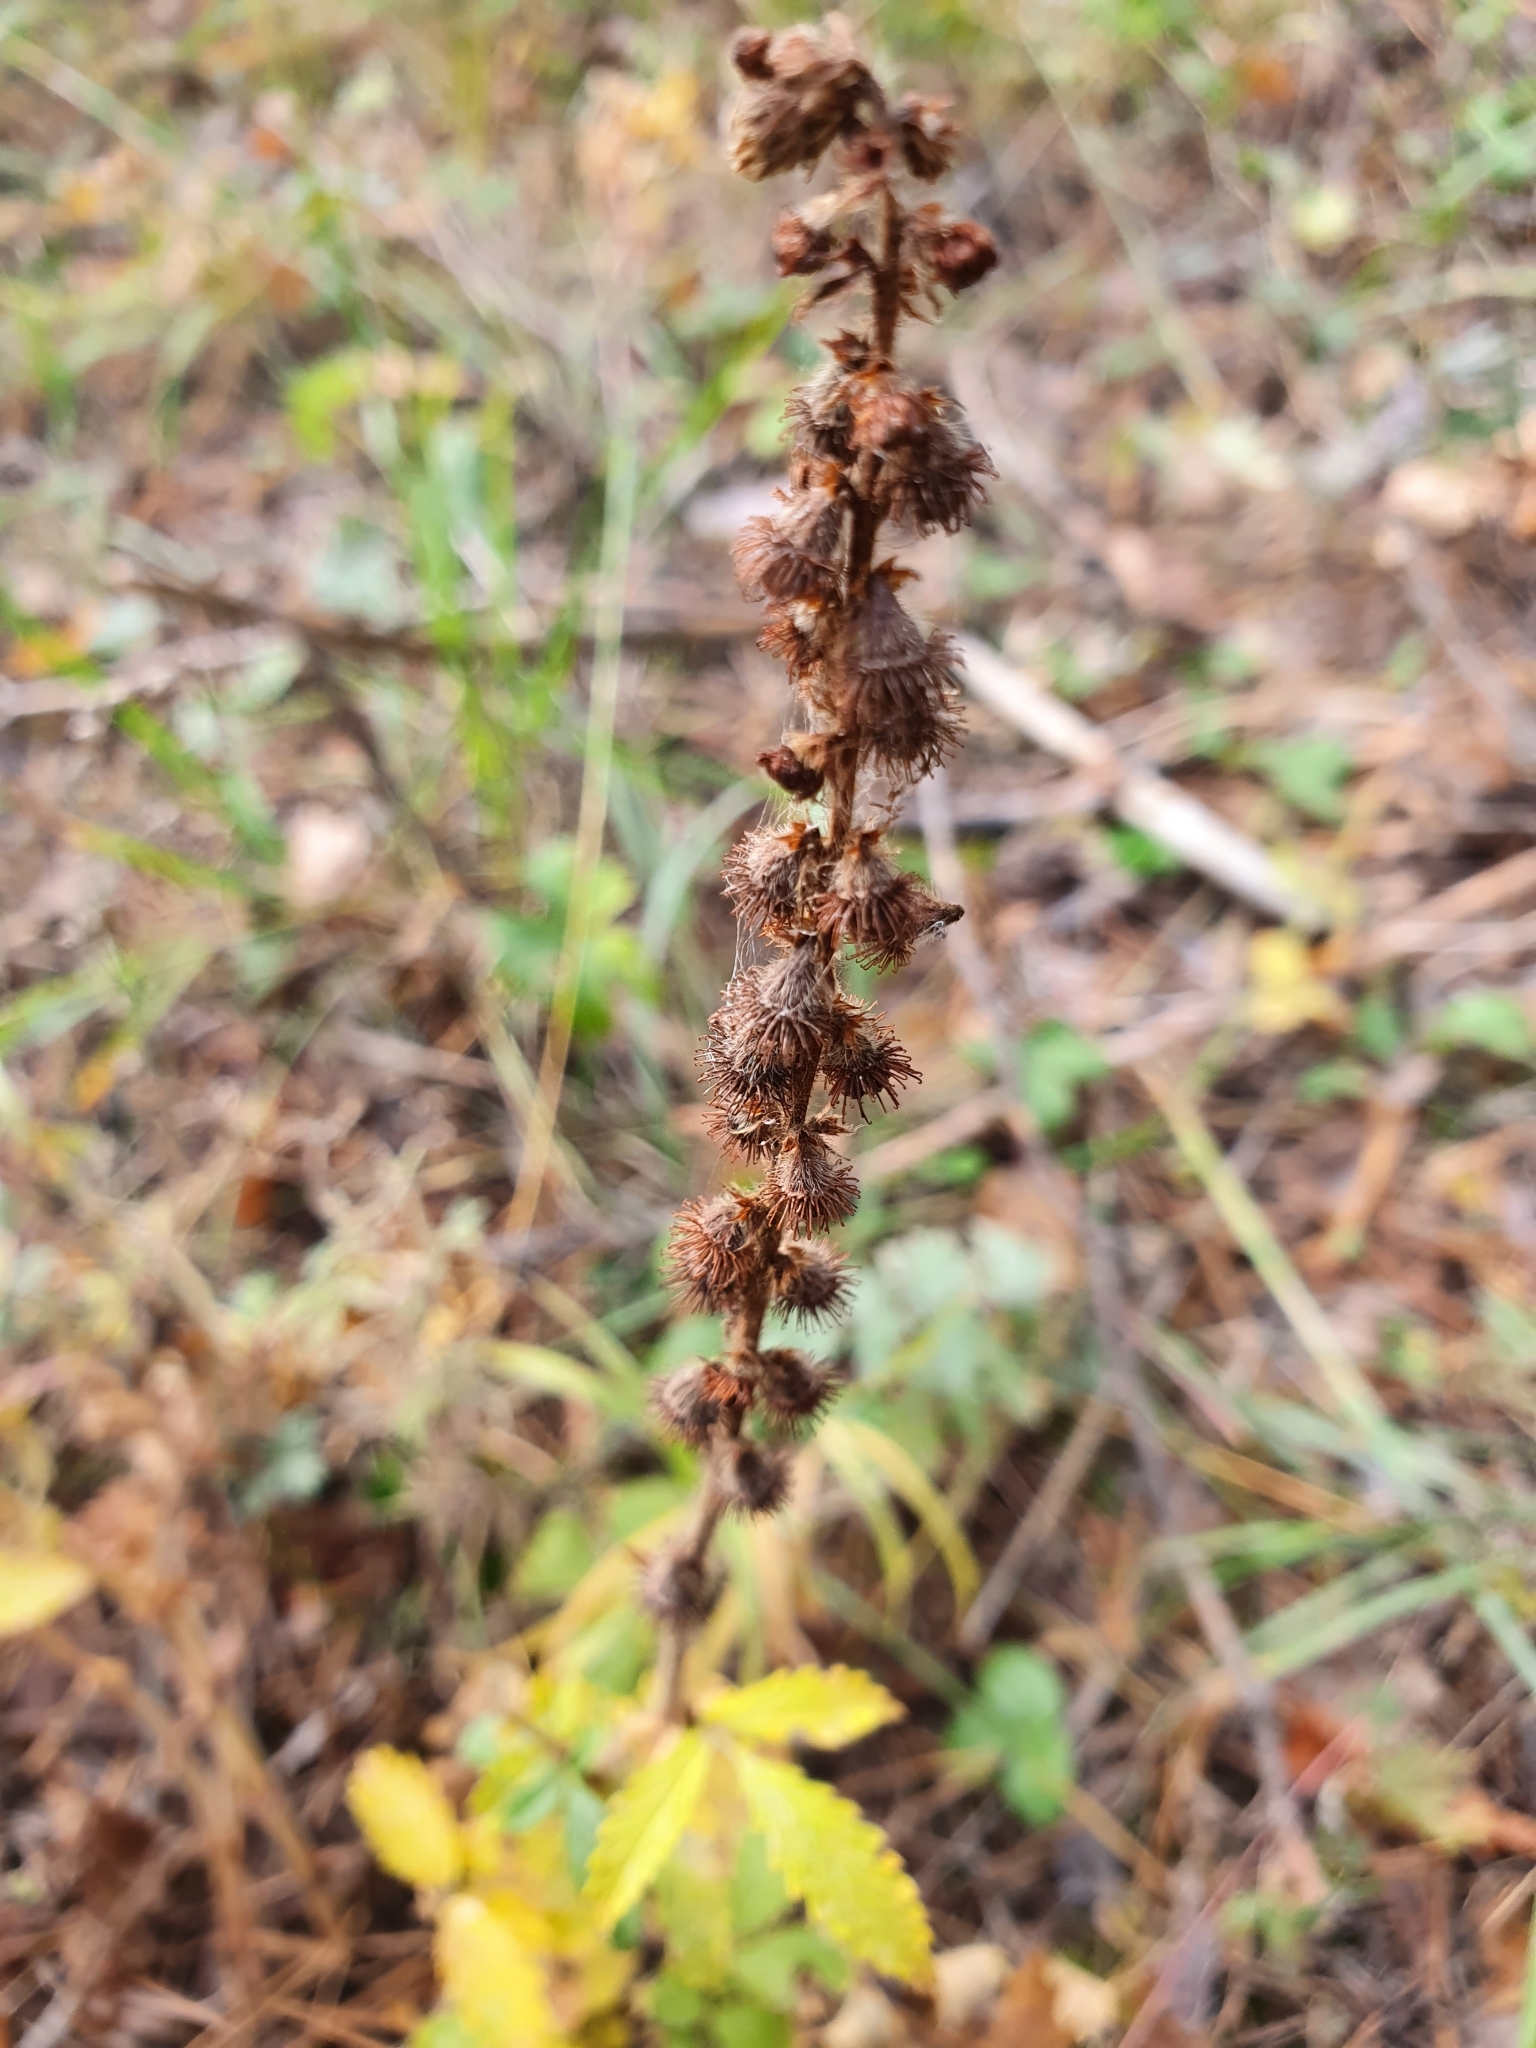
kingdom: Plantae
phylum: Tracheophyta
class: Magnoliopsida
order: Rosales
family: Rosaceae
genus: Agrimonia
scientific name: Agrimonia eupatoria
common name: Agrimony
